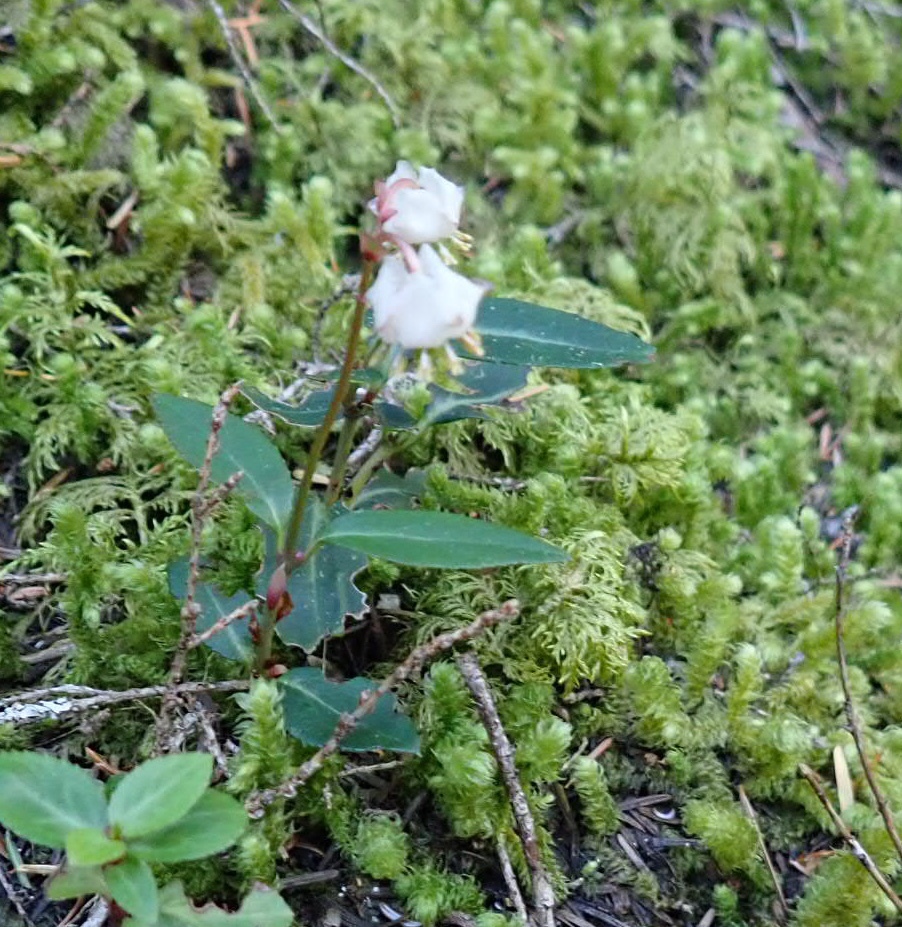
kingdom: Plantae
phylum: Tracheophyta
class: Magnoliopsida
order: Ericales
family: Ericaceae
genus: Chimaphila
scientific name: Chimaphila menziesii
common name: Menzies' pipsissewa
